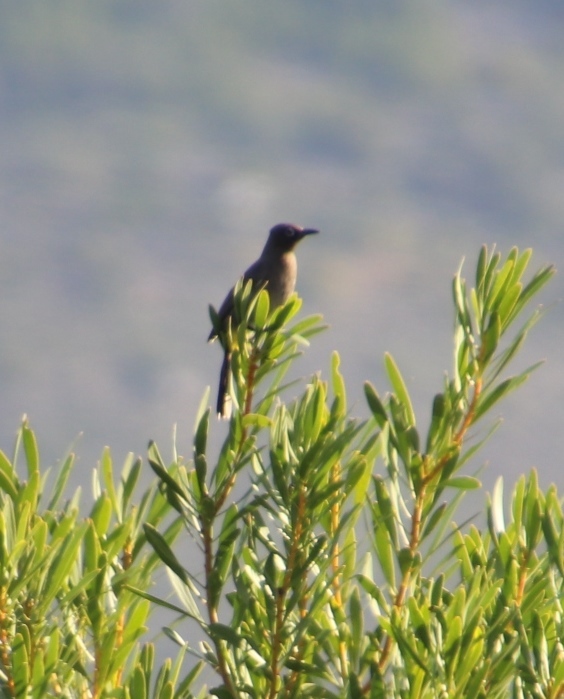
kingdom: Animalia
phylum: Chordata
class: Aves
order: Passeriformes
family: Pycnonotidae
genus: Pycnonotus
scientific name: Pycnonotus capensis
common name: Cape bulbul
